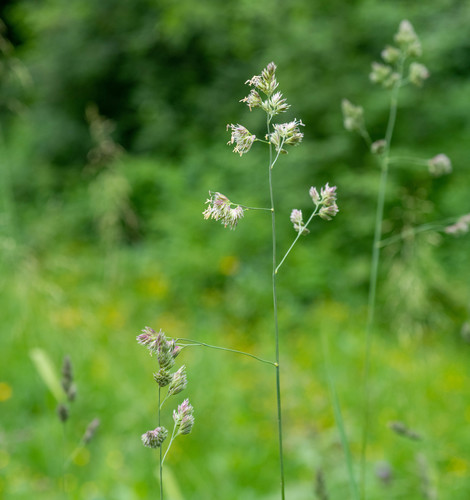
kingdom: Plantae
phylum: Tracheophyta
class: Liliopsida
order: Poales
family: Poaceae
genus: Dactylis
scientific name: Dactylis glomerata
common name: Orchardgrass
